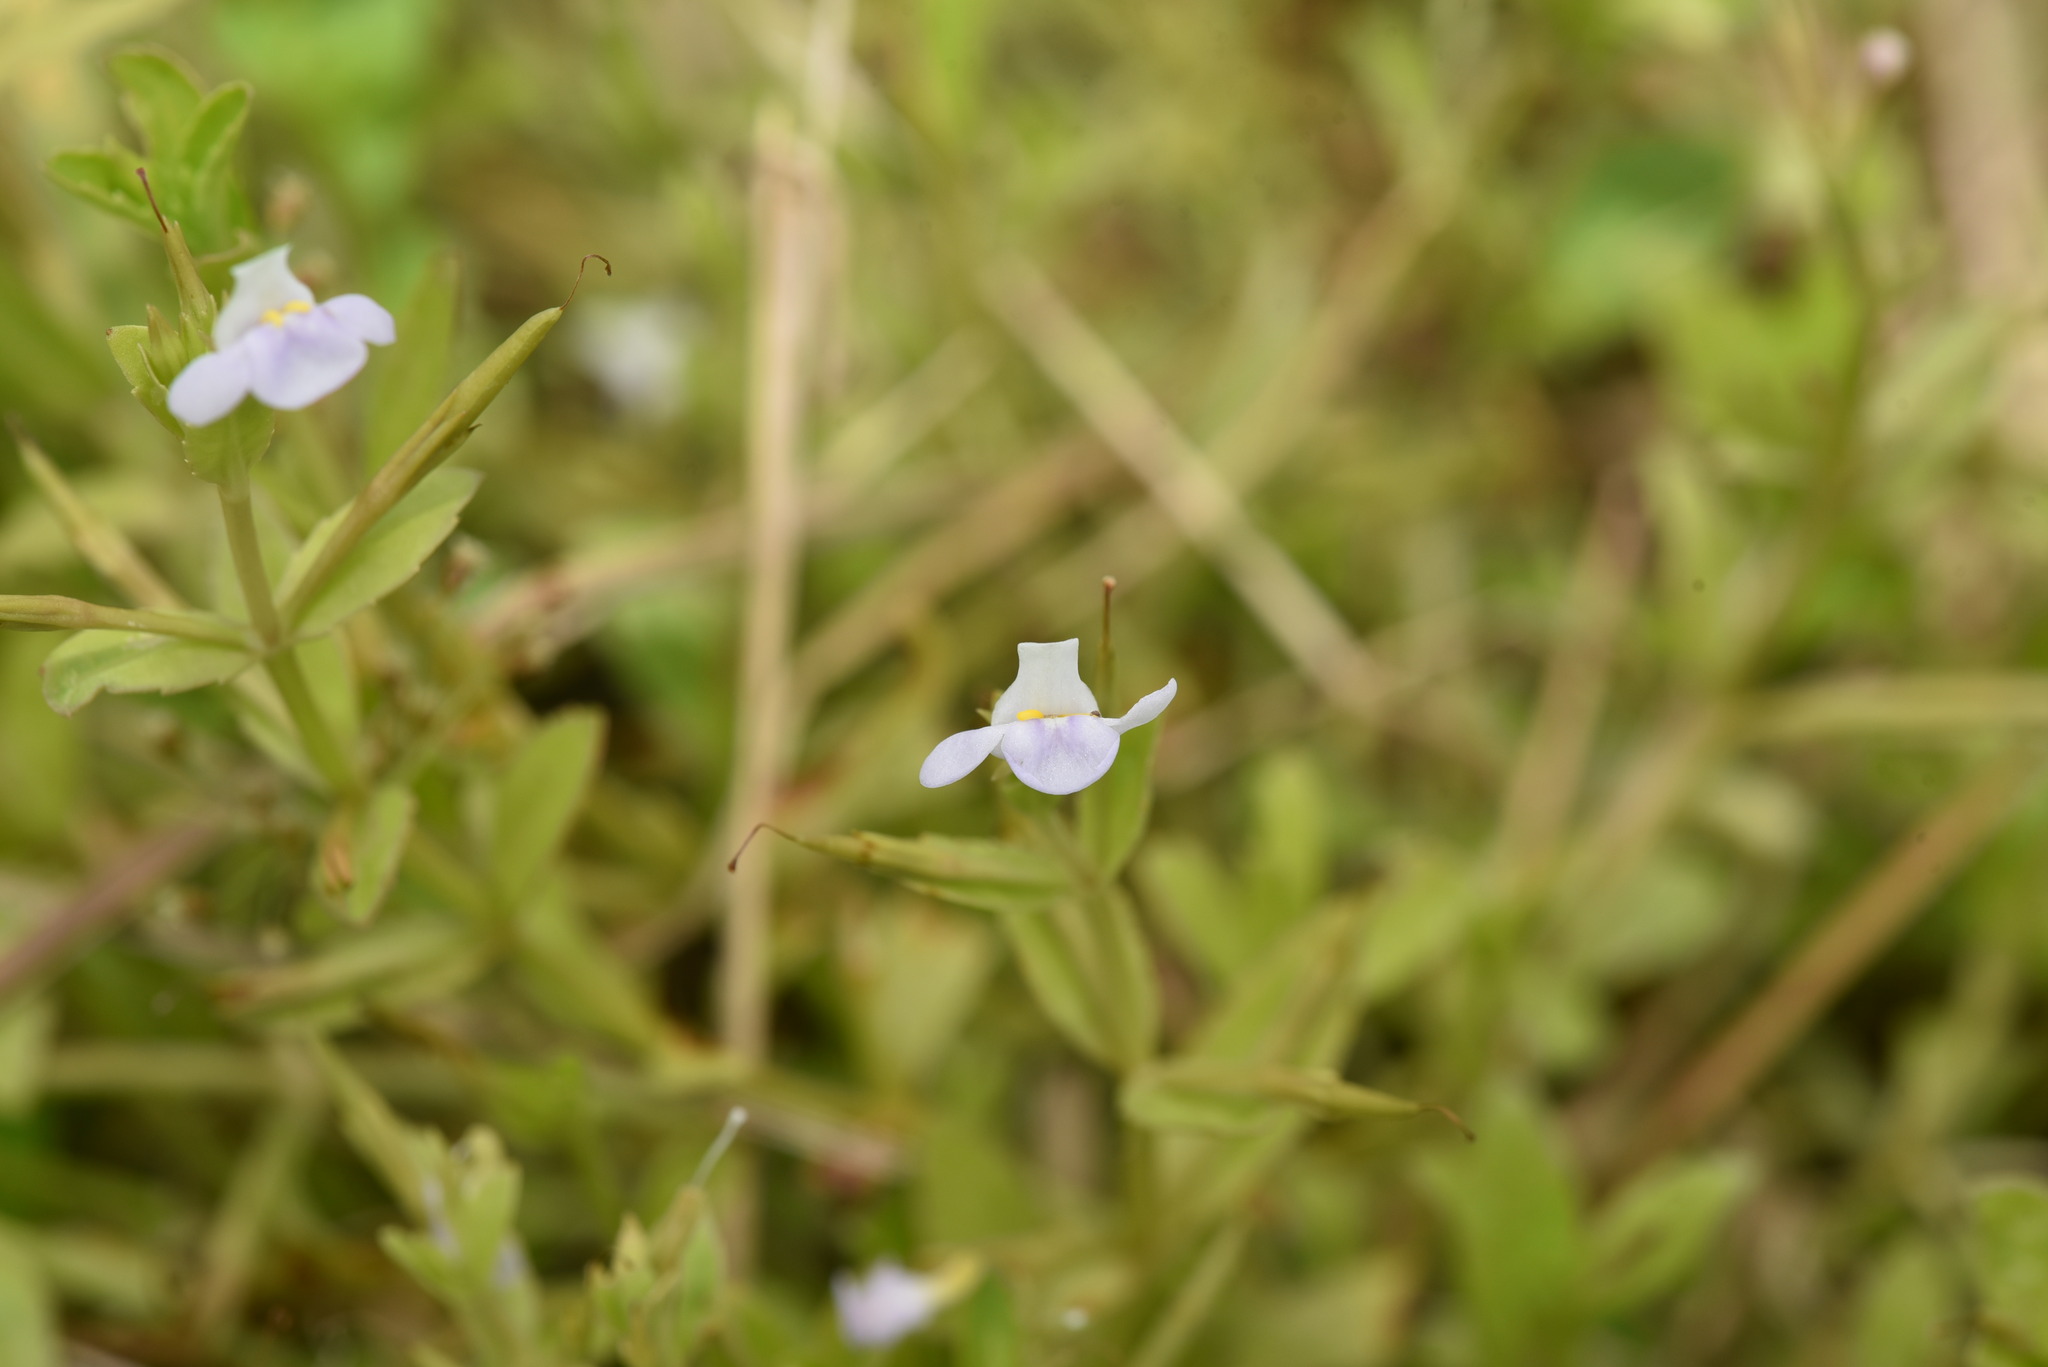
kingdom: Plantae
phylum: Tracheophyta
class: Magnoliopsida
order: Lamiales
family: Linderniaceae
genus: Bonnaya
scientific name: Bonnaya antipoda
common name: Sparrow false pimpernel
